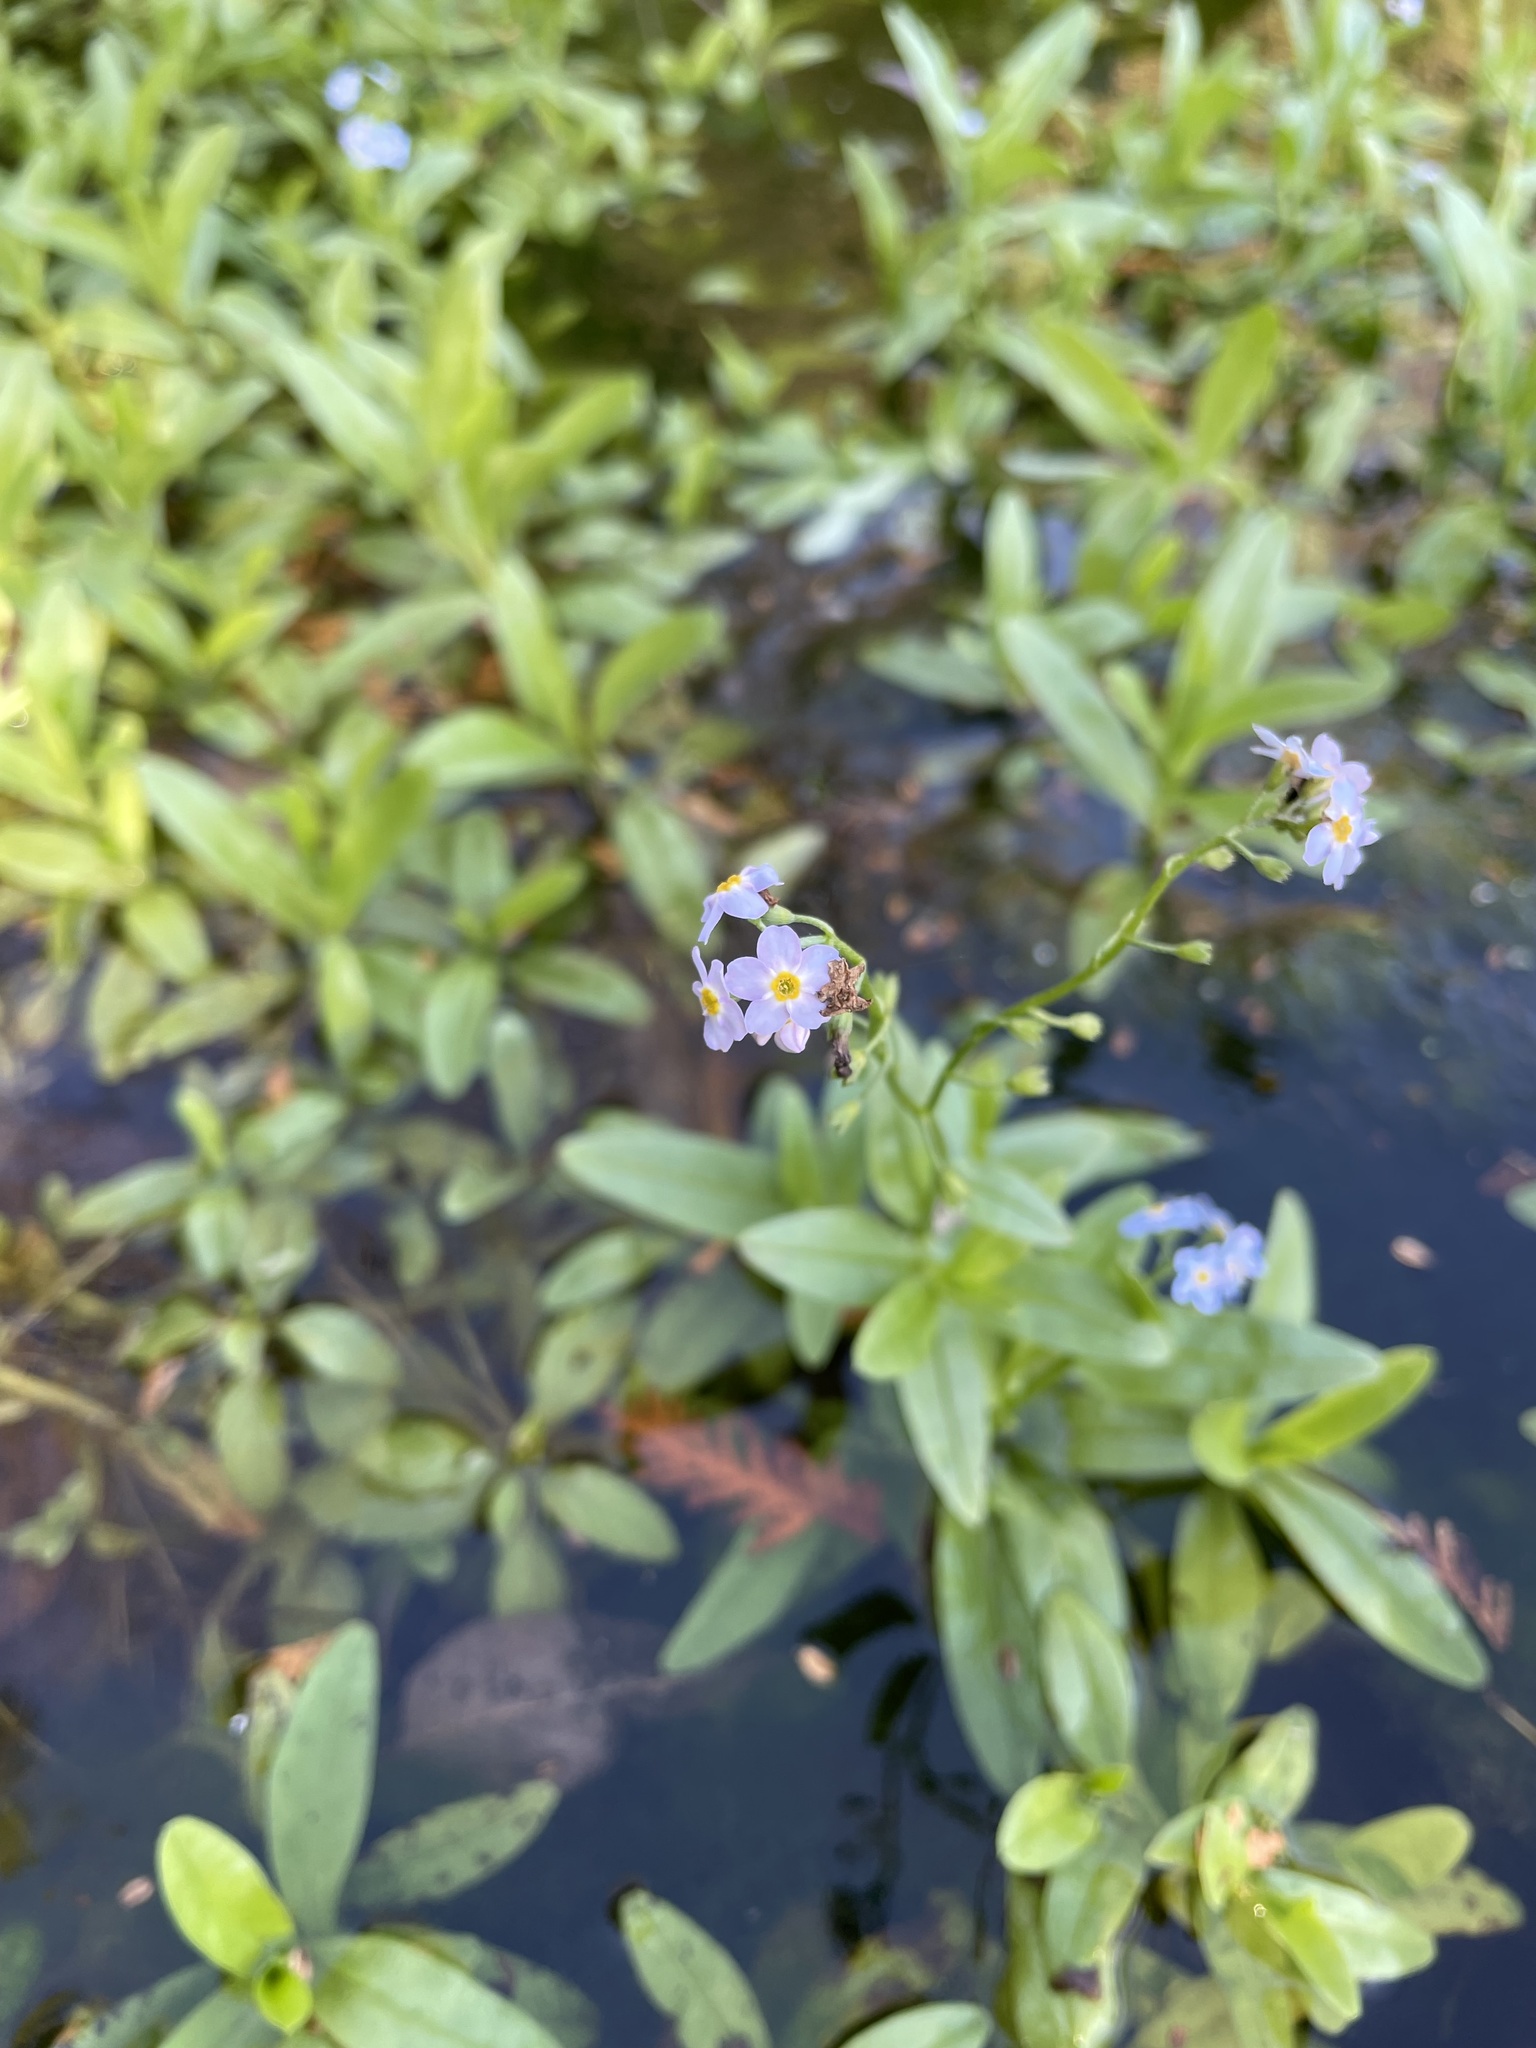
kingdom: Plantae
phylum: Tracheophyta
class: Magnoliopsida
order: Boraginales
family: Boraginaceae
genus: Myosotis
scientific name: Myosotis scorpioides
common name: Water forget-me-not
